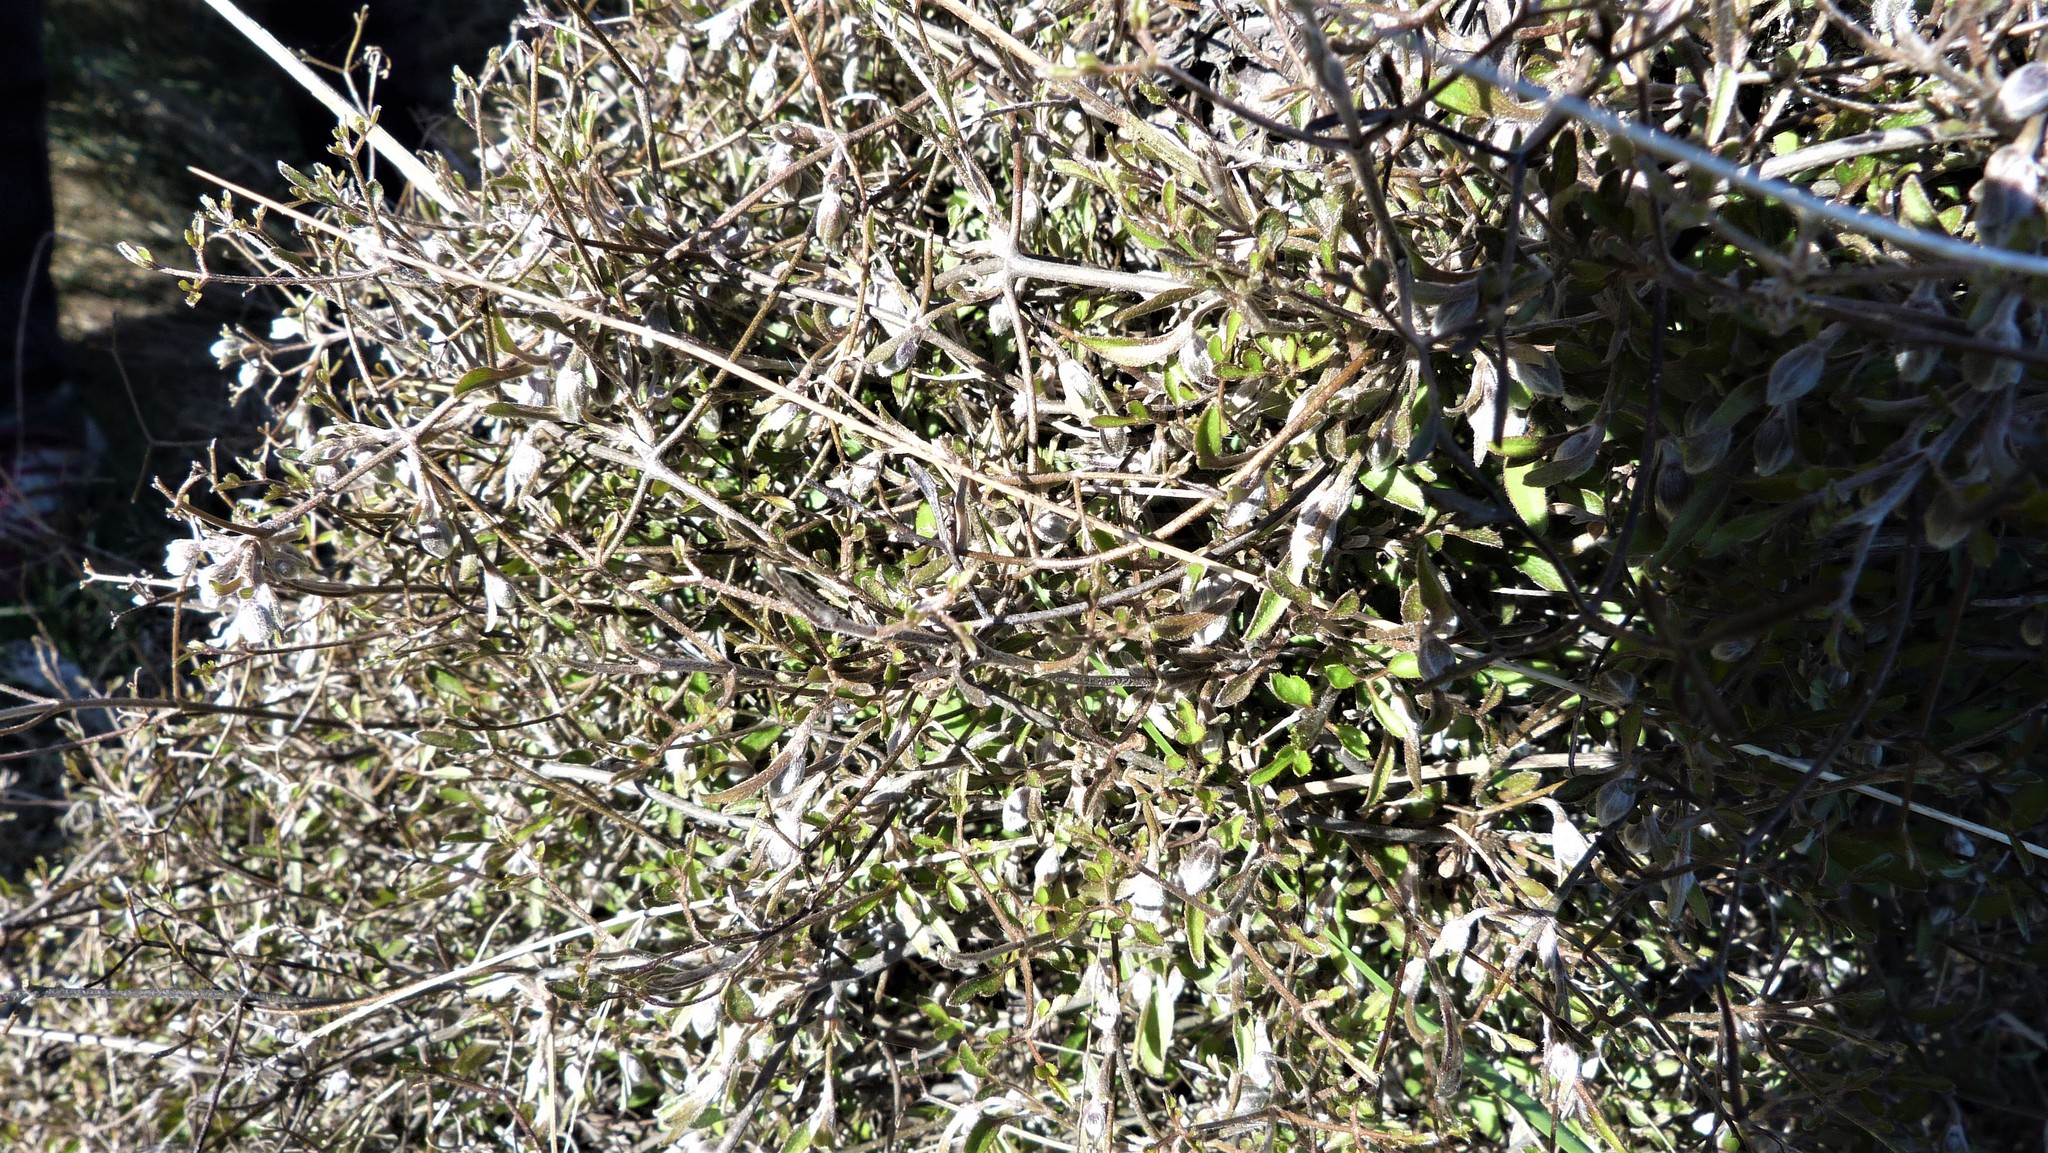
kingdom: Plantae
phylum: Tracheophyta
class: Magnoliopsida
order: Ranunculales
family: Ranunculaceae
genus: Clematis
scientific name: Clematis quadribracteolata
